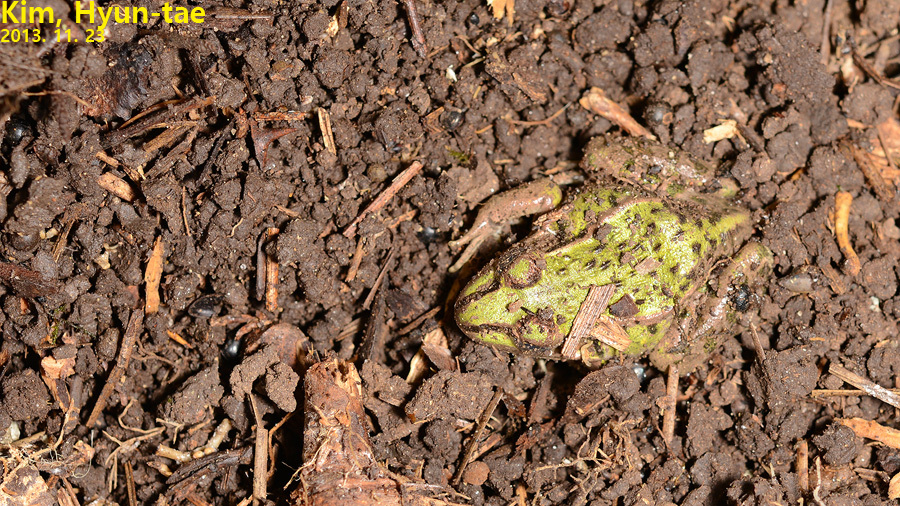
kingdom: Animalia
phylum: Chordata
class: Amphibia
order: Anura
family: Ranidae
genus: Pelophylax
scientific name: Pelophylax nigromaculatus
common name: Black-spotted pond frog
